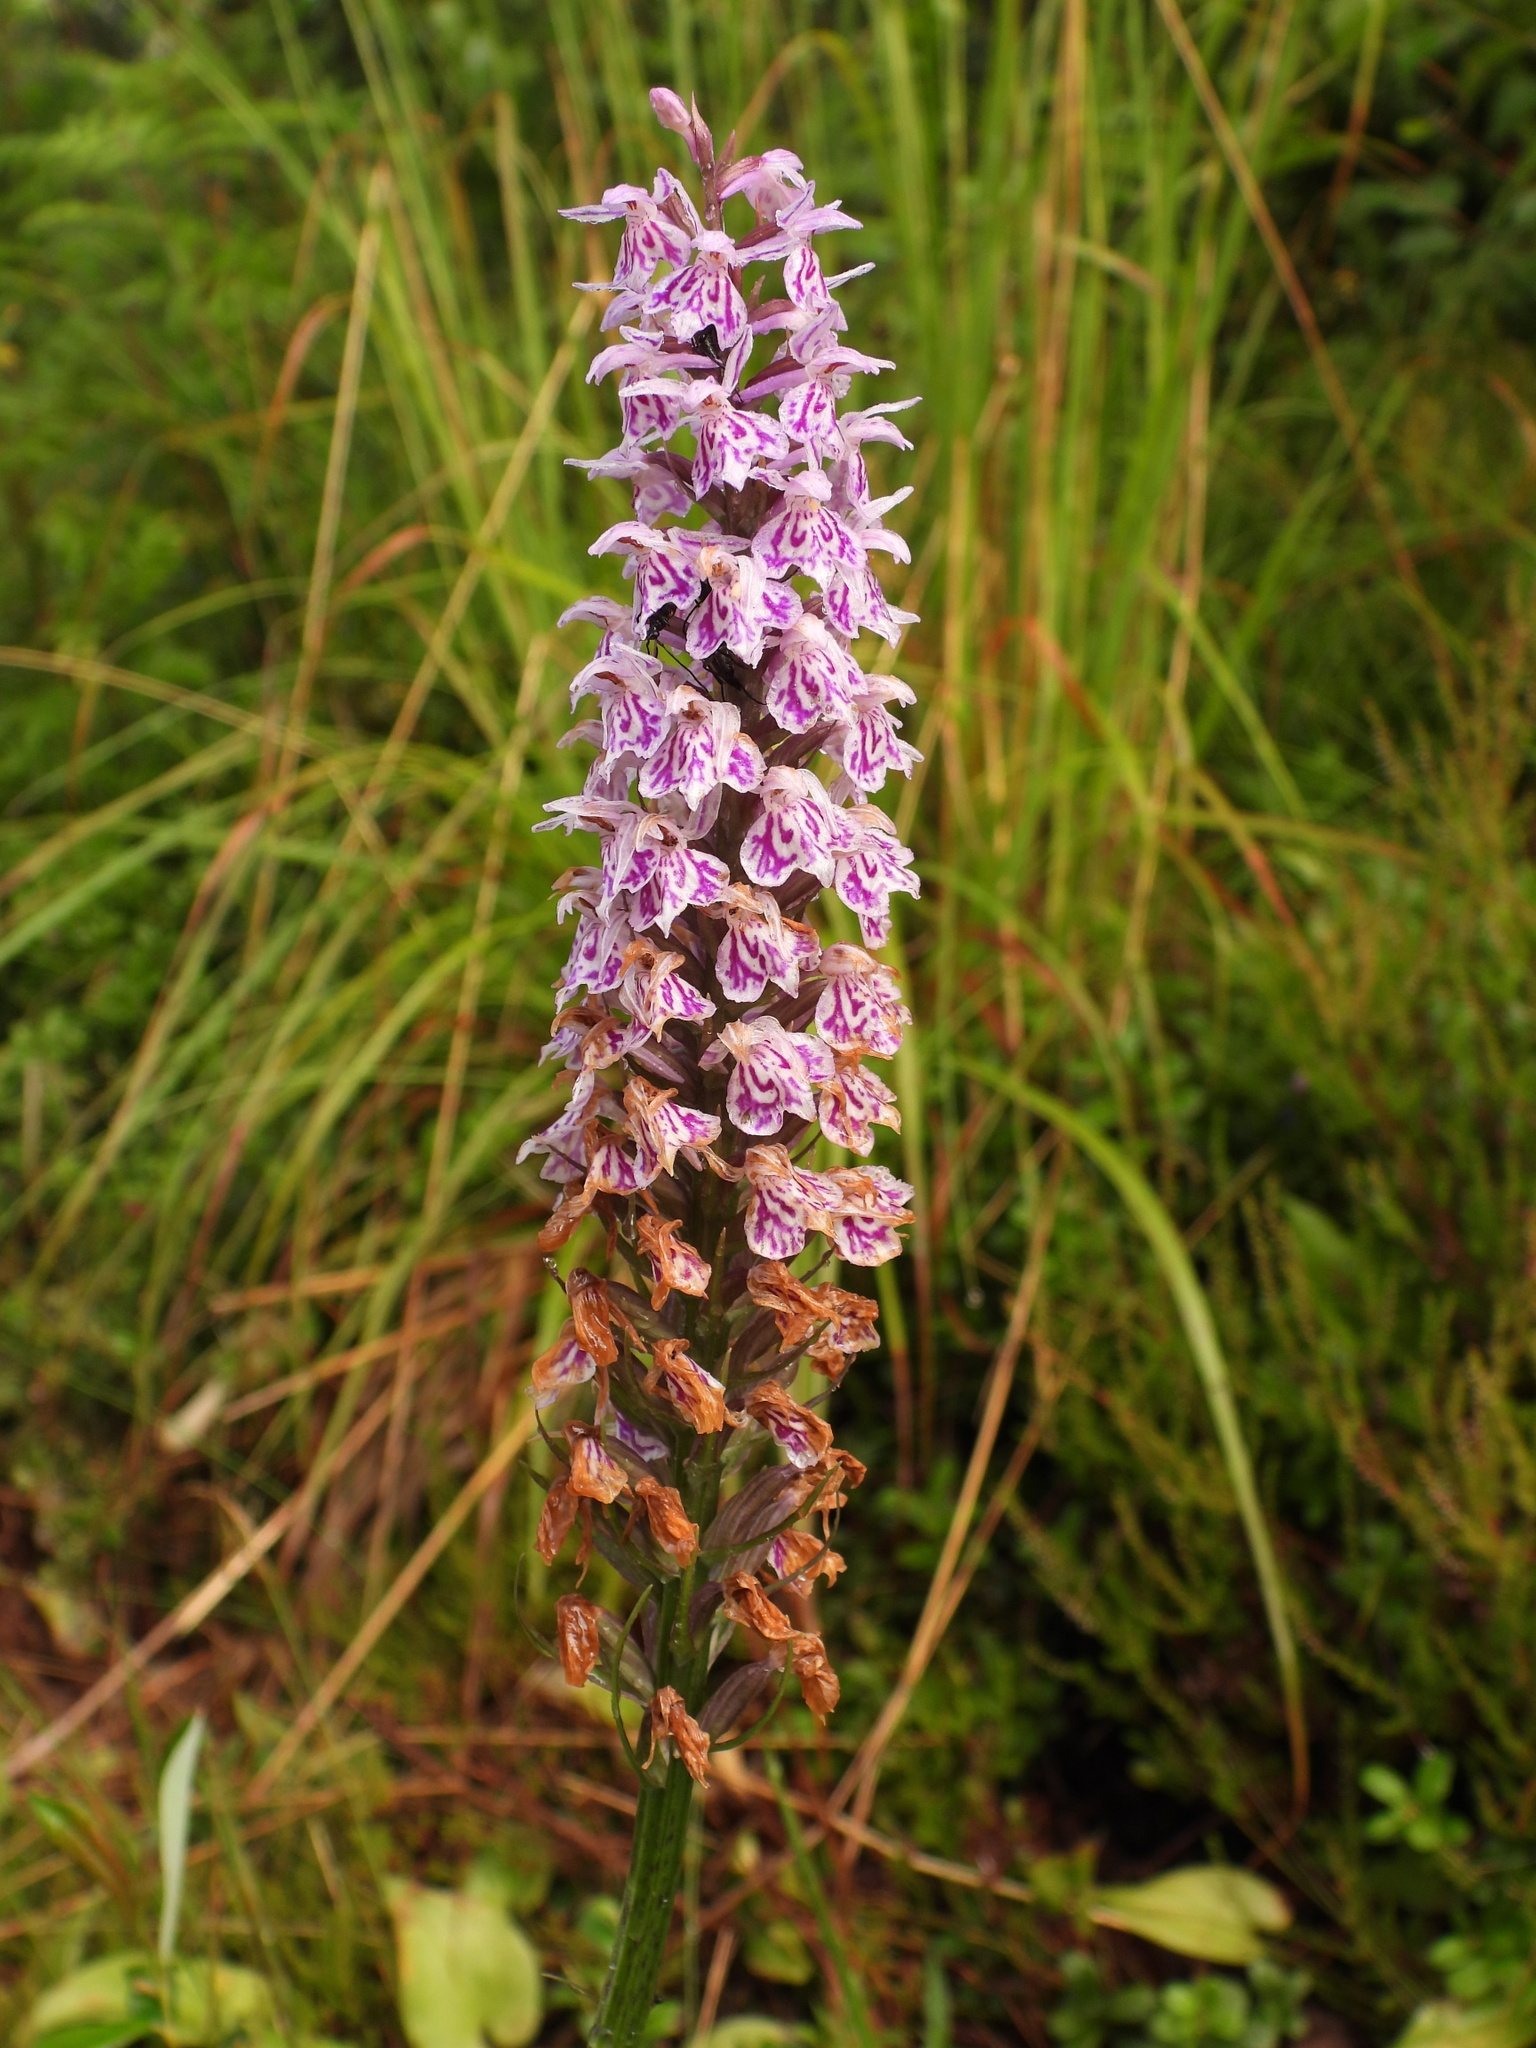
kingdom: Plantae
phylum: Tracheophyta
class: Liliopsida
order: Asparagales
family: Orchidaceae
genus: Dactylorhiza
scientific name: Dactylorhiza maculata
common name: Heath spotted-orchid
